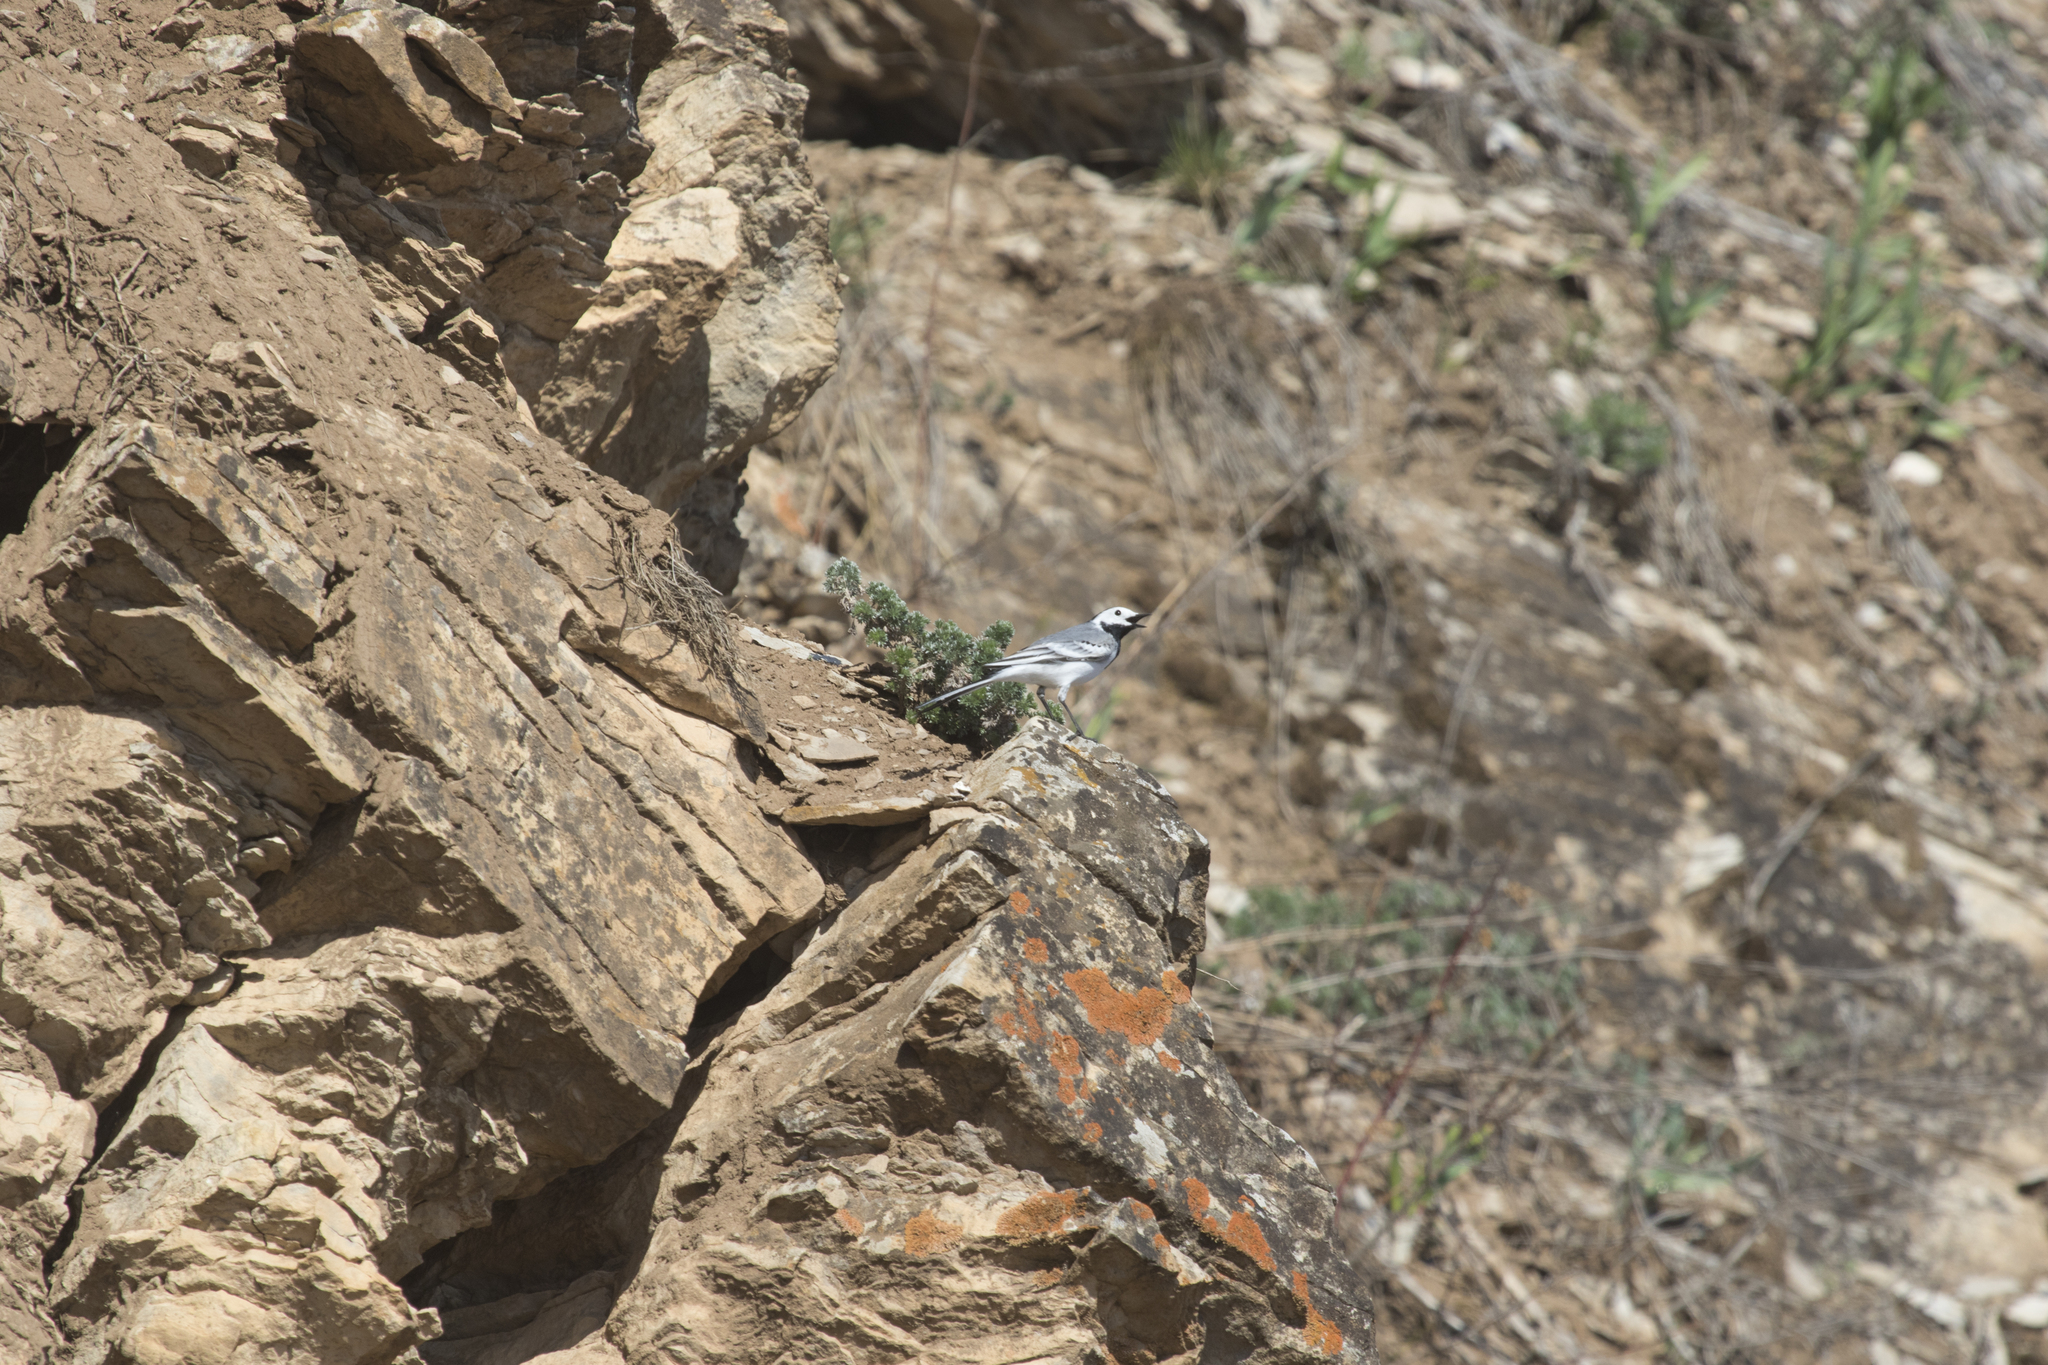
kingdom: Animalia
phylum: Chordata
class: Aves
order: Passeriformes
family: Motacillidae
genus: Motacilla
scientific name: Motacilla alba
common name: White wagtail
